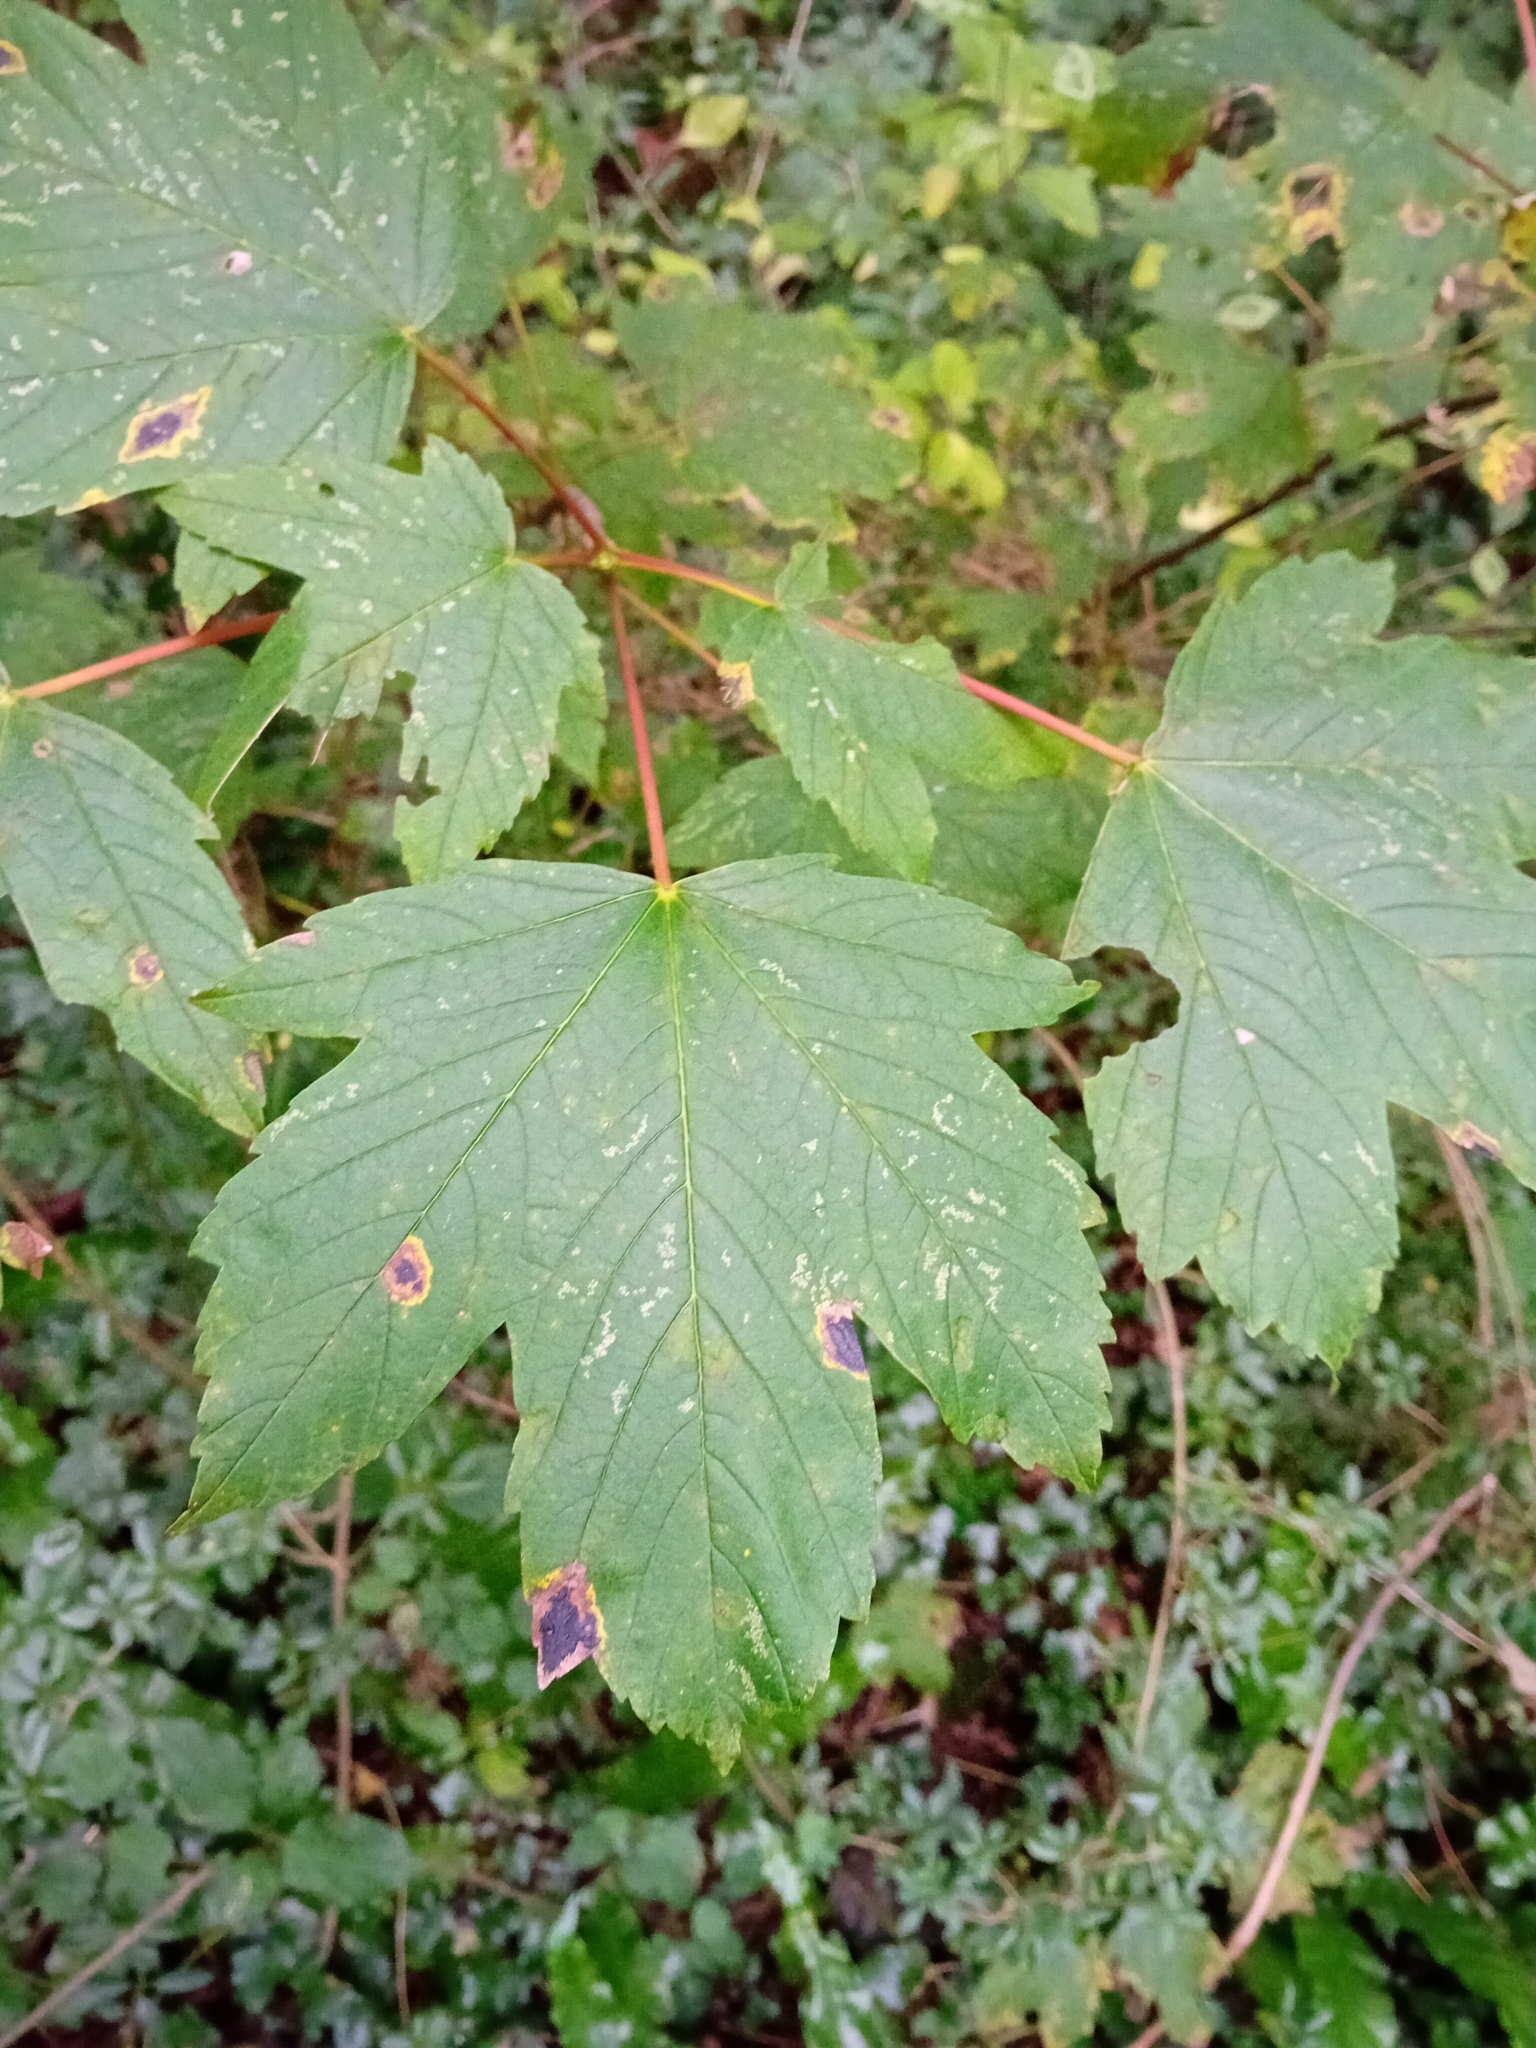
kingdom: Plantae
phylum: Tracheophyta
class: Magnoliopsida
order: Sapindales
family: Sapindaceae
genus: Acer
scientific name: Acer pseudoplatanus
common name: Sycamore
